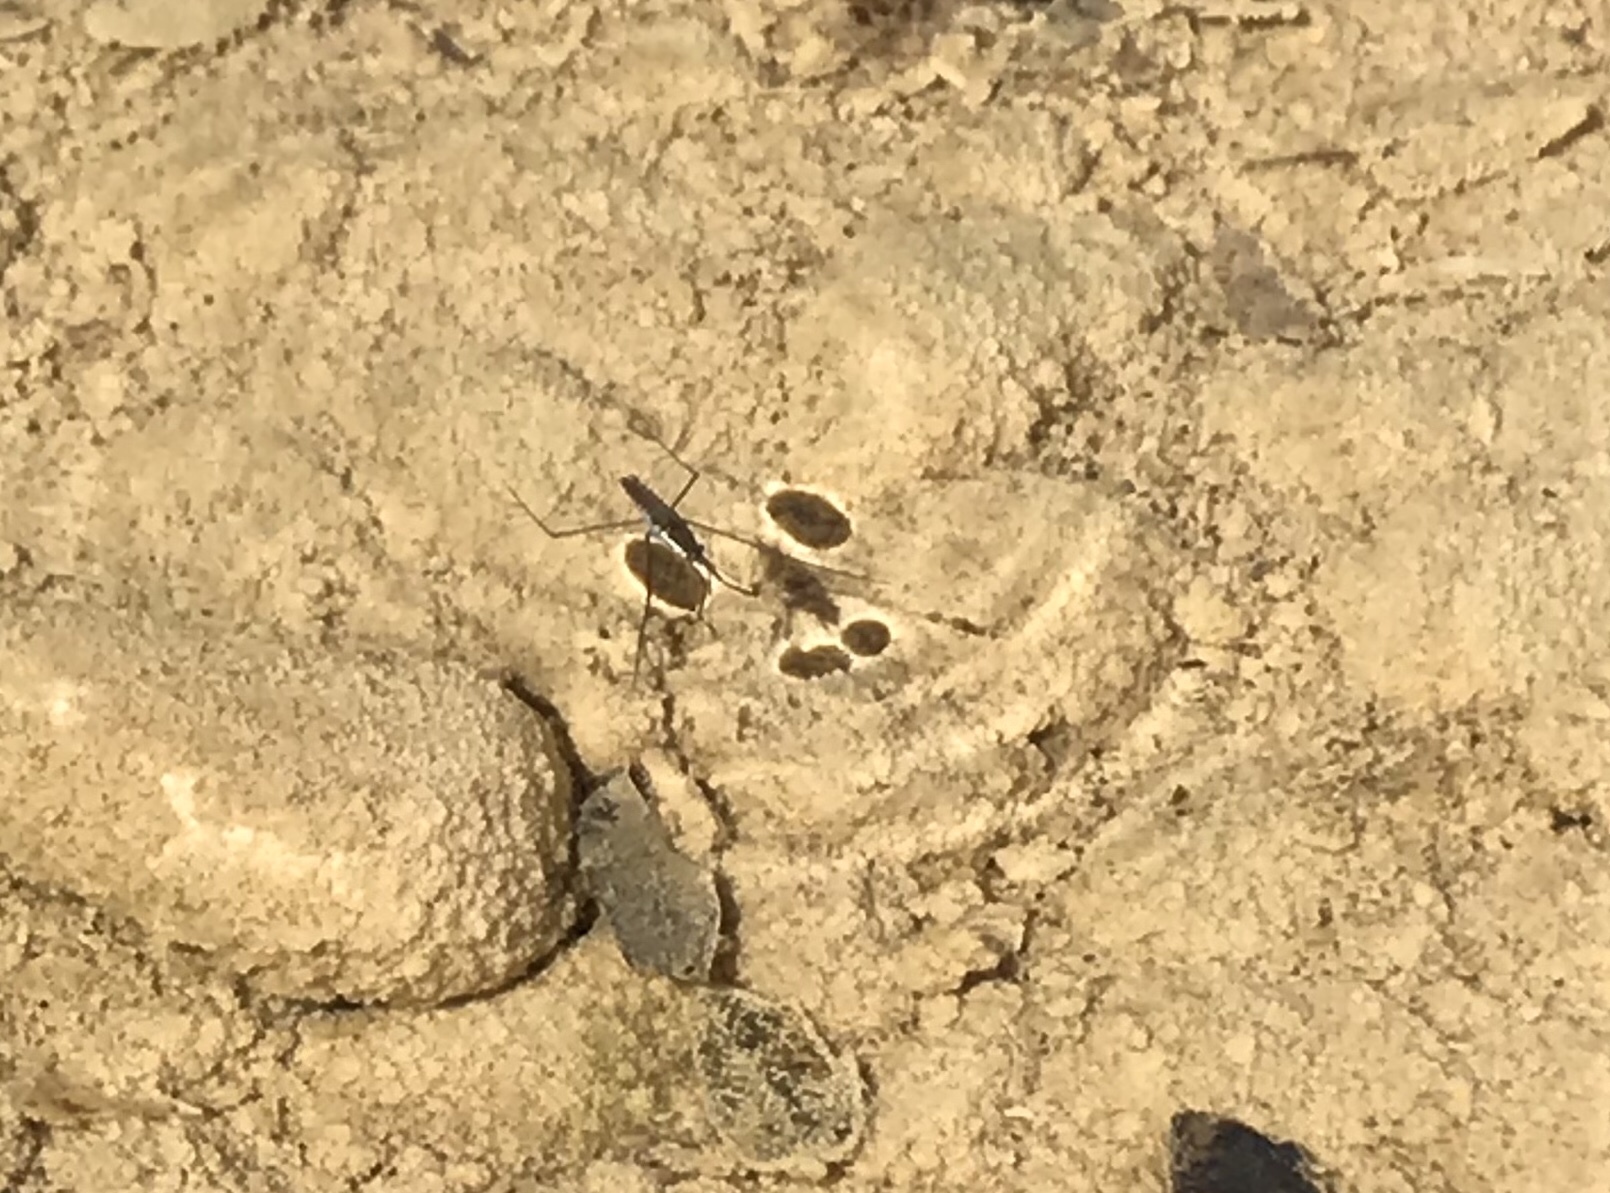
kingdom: Animalia
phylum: Arthropoda
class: Insecta
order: Hemiptera
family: Gerridae
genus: Aquarius
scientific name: Aquarius remigis
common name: Common water strider
